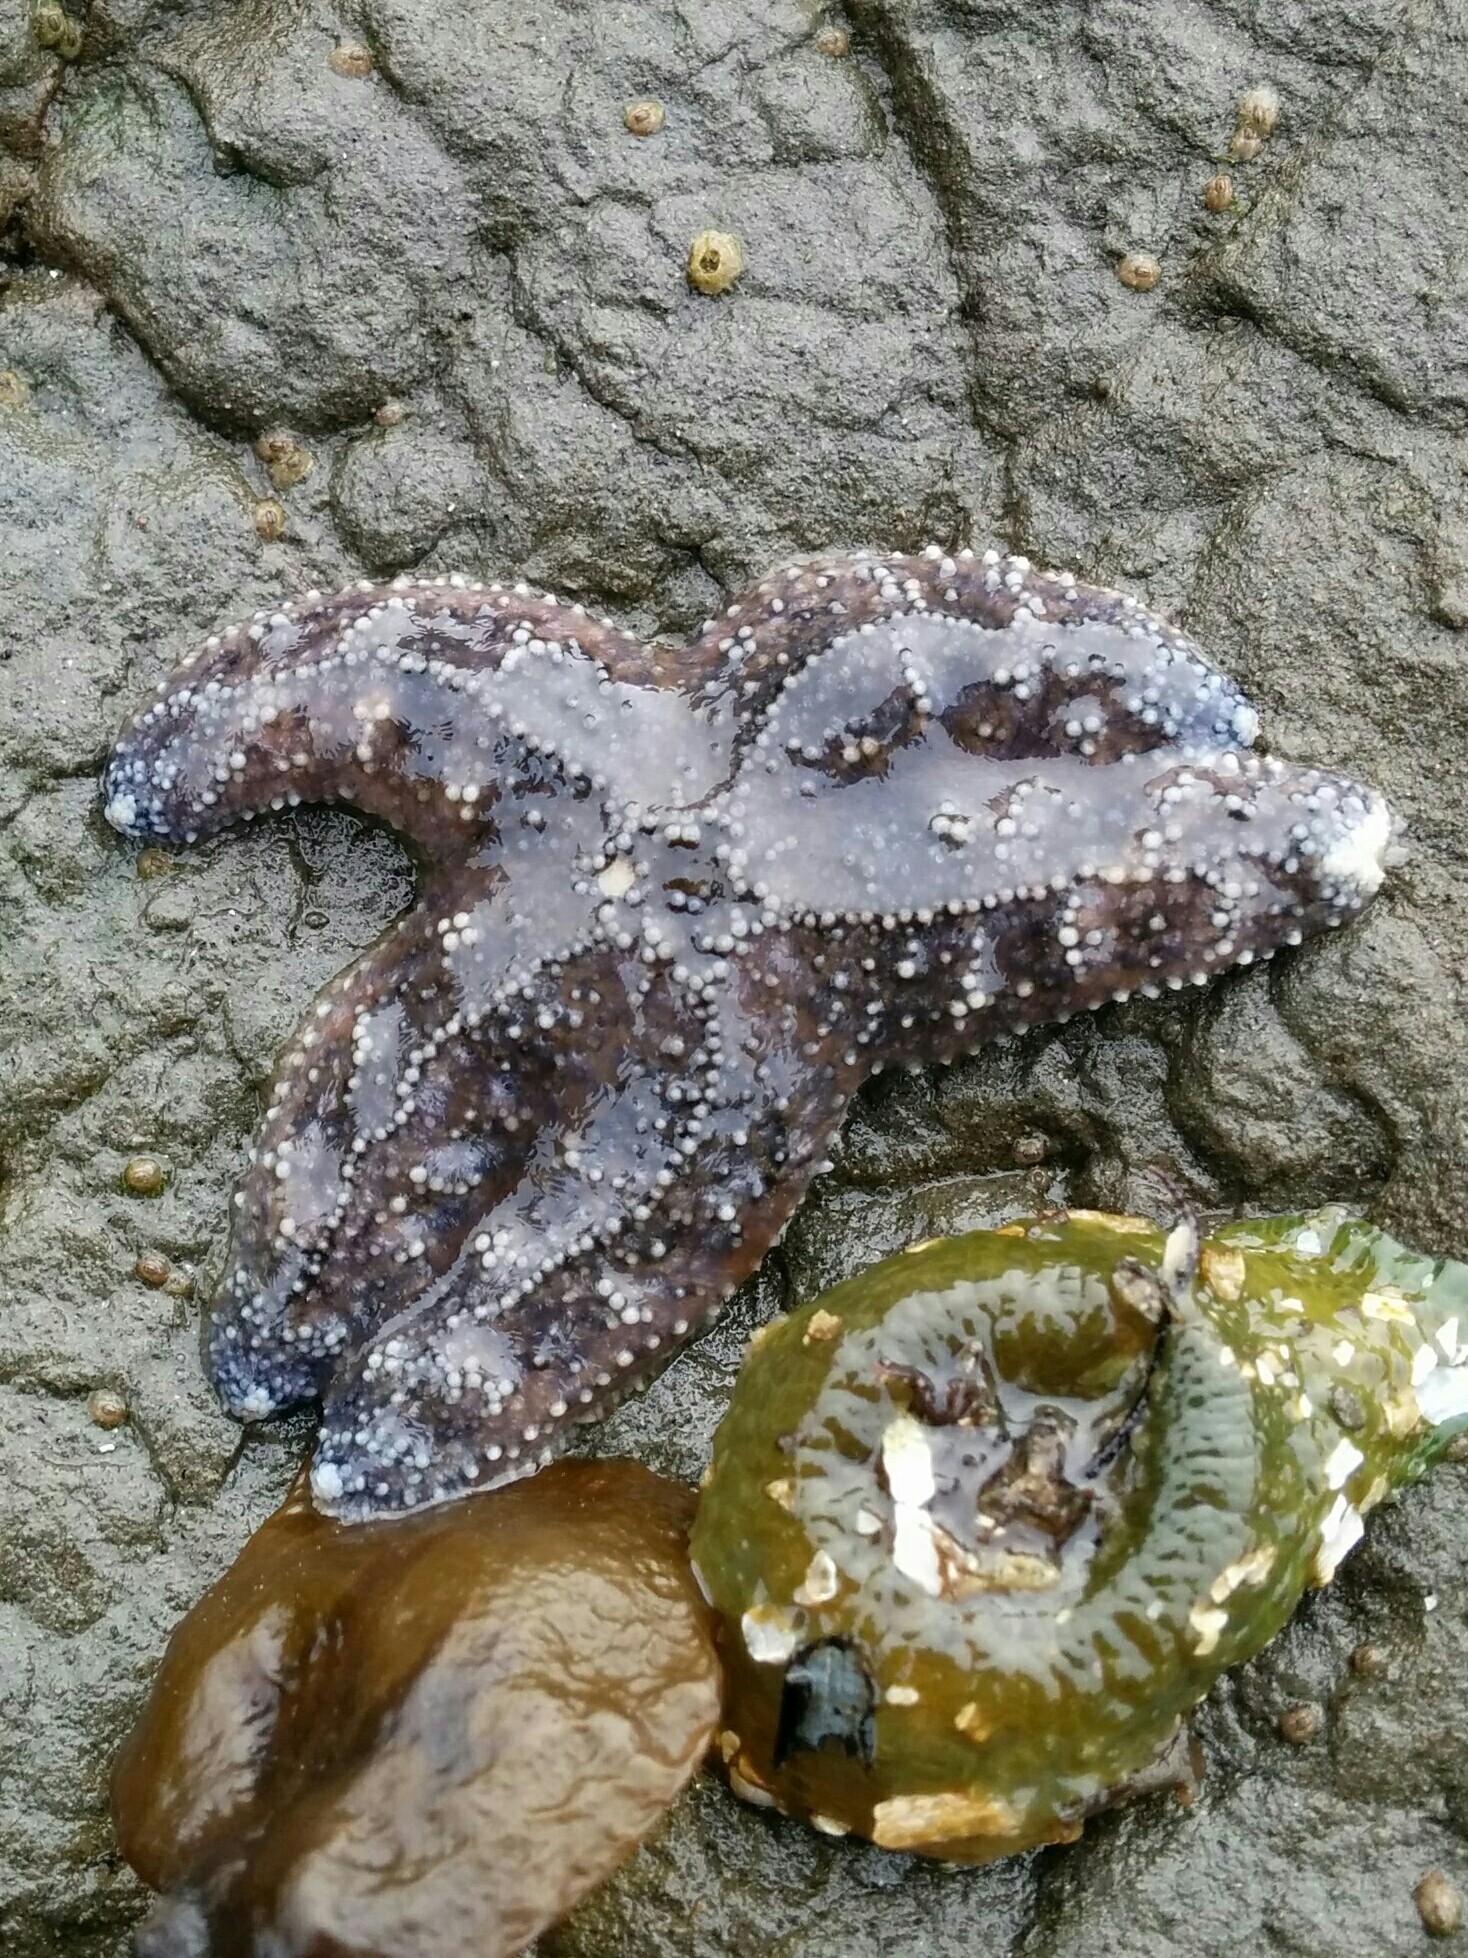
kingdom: Animalia
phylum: Echinodermata
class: Asteroidea
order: Forcipulatida
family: Asteriidae
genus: Pisaster
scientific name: Pisaster ochraceus
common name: Ochre stars
